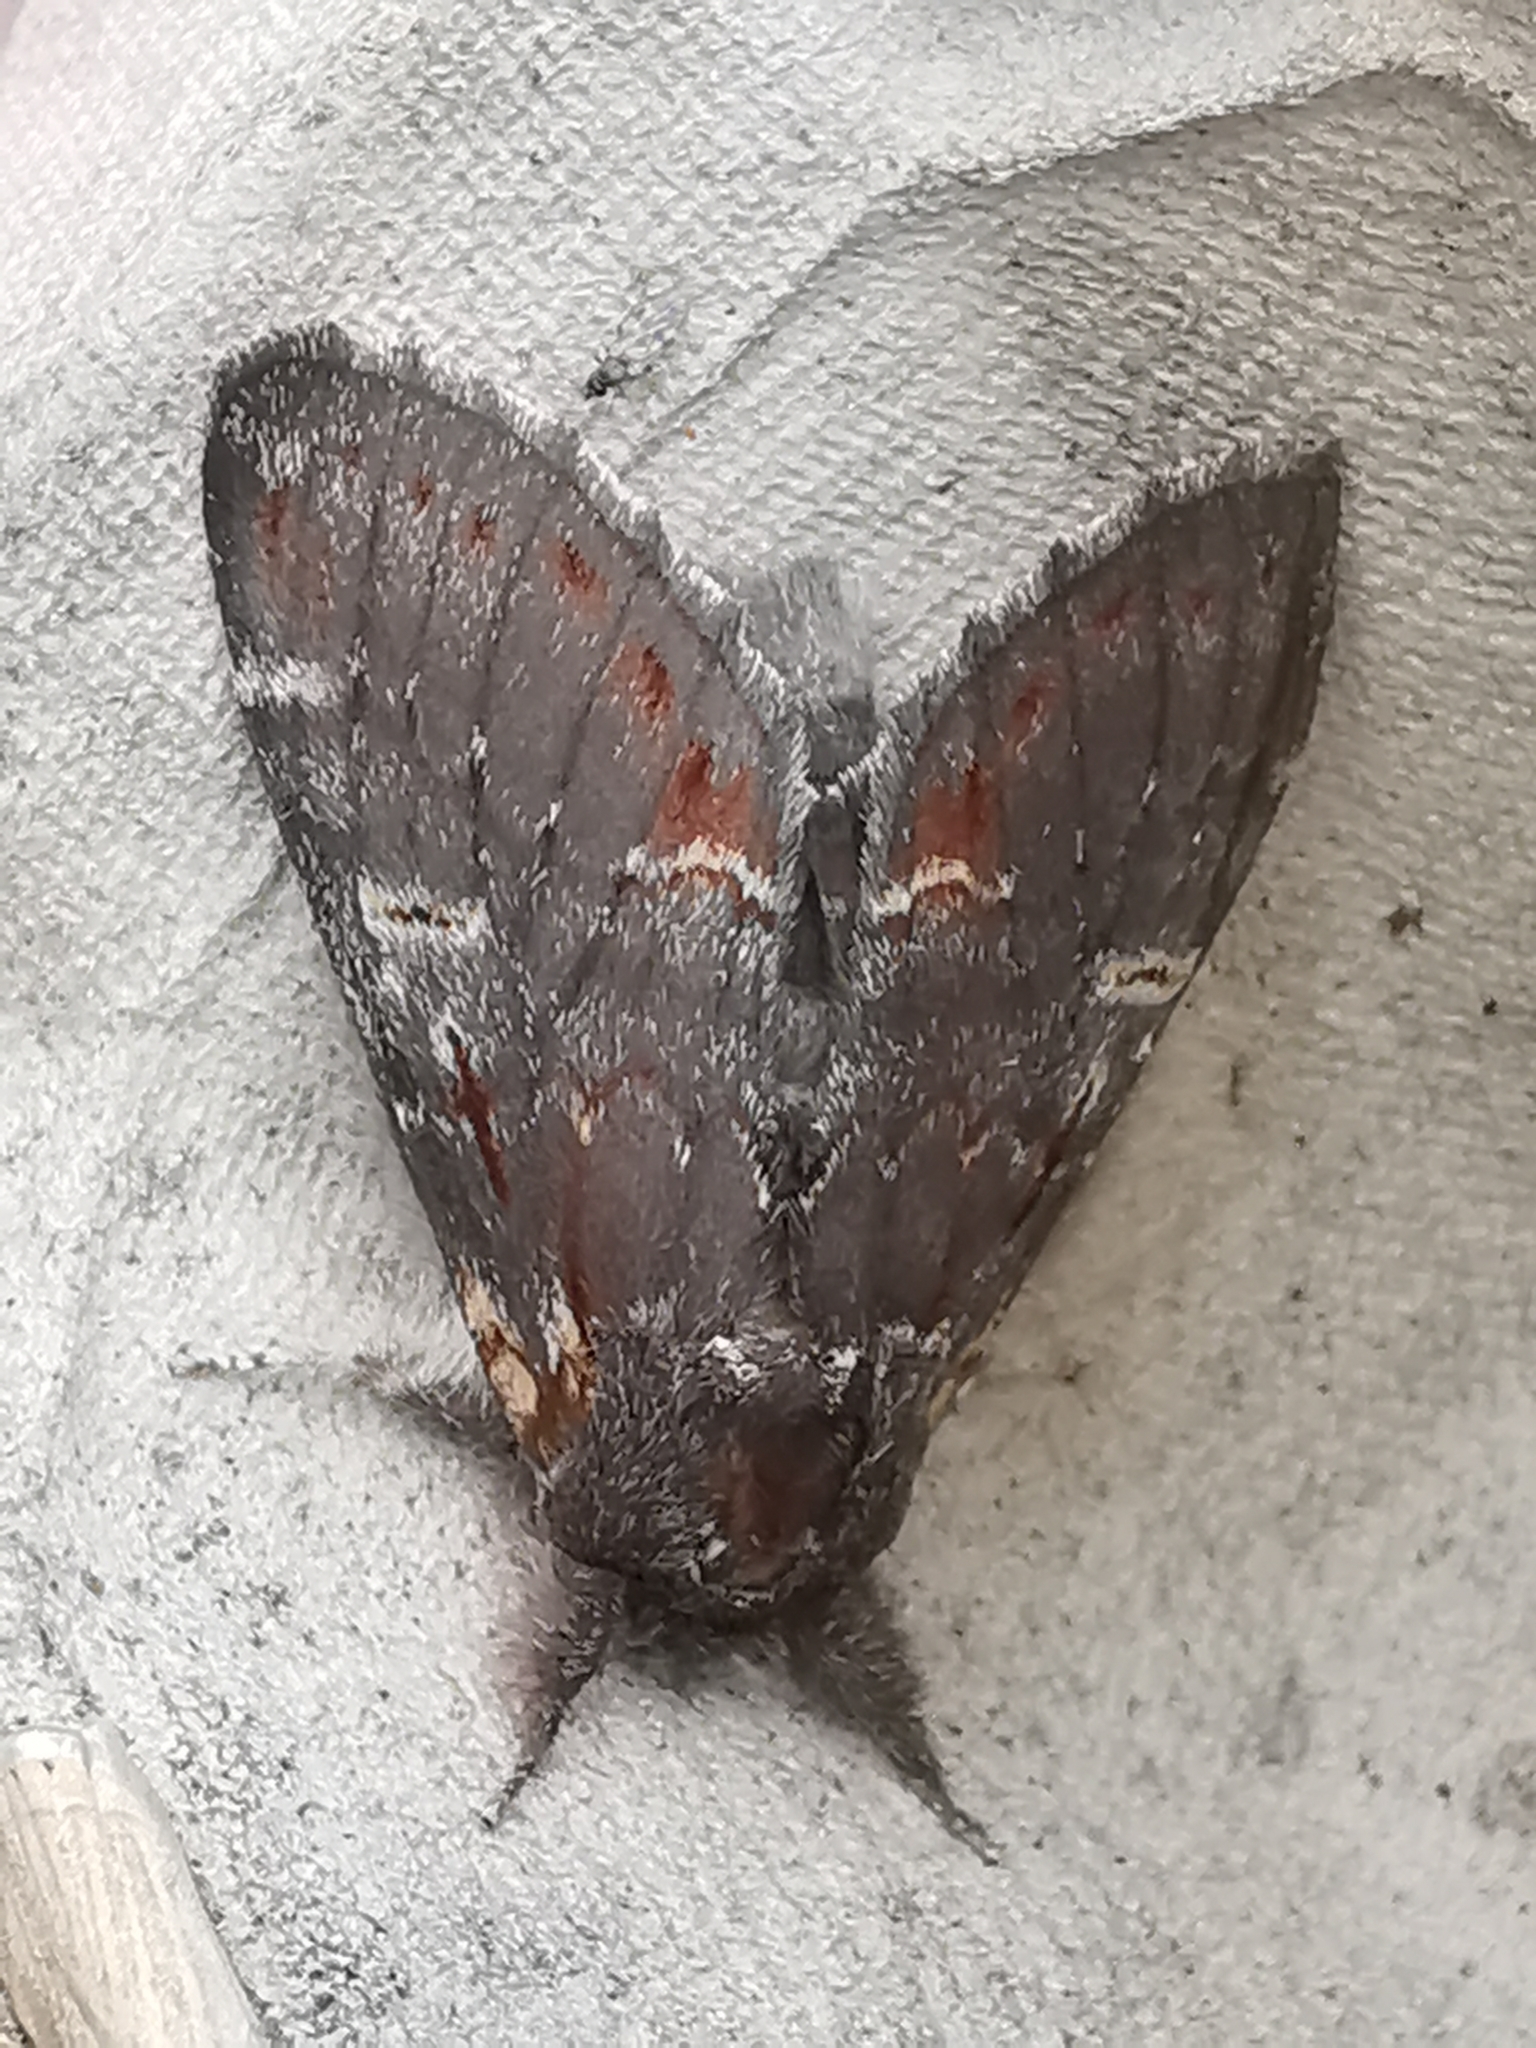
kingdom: Animalia
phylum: Arthropoda
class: Insecta
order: Lepidoptera
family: Notodontidae
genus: Notodonta
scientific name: Notodonta dromedarius
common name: Iron prominent
